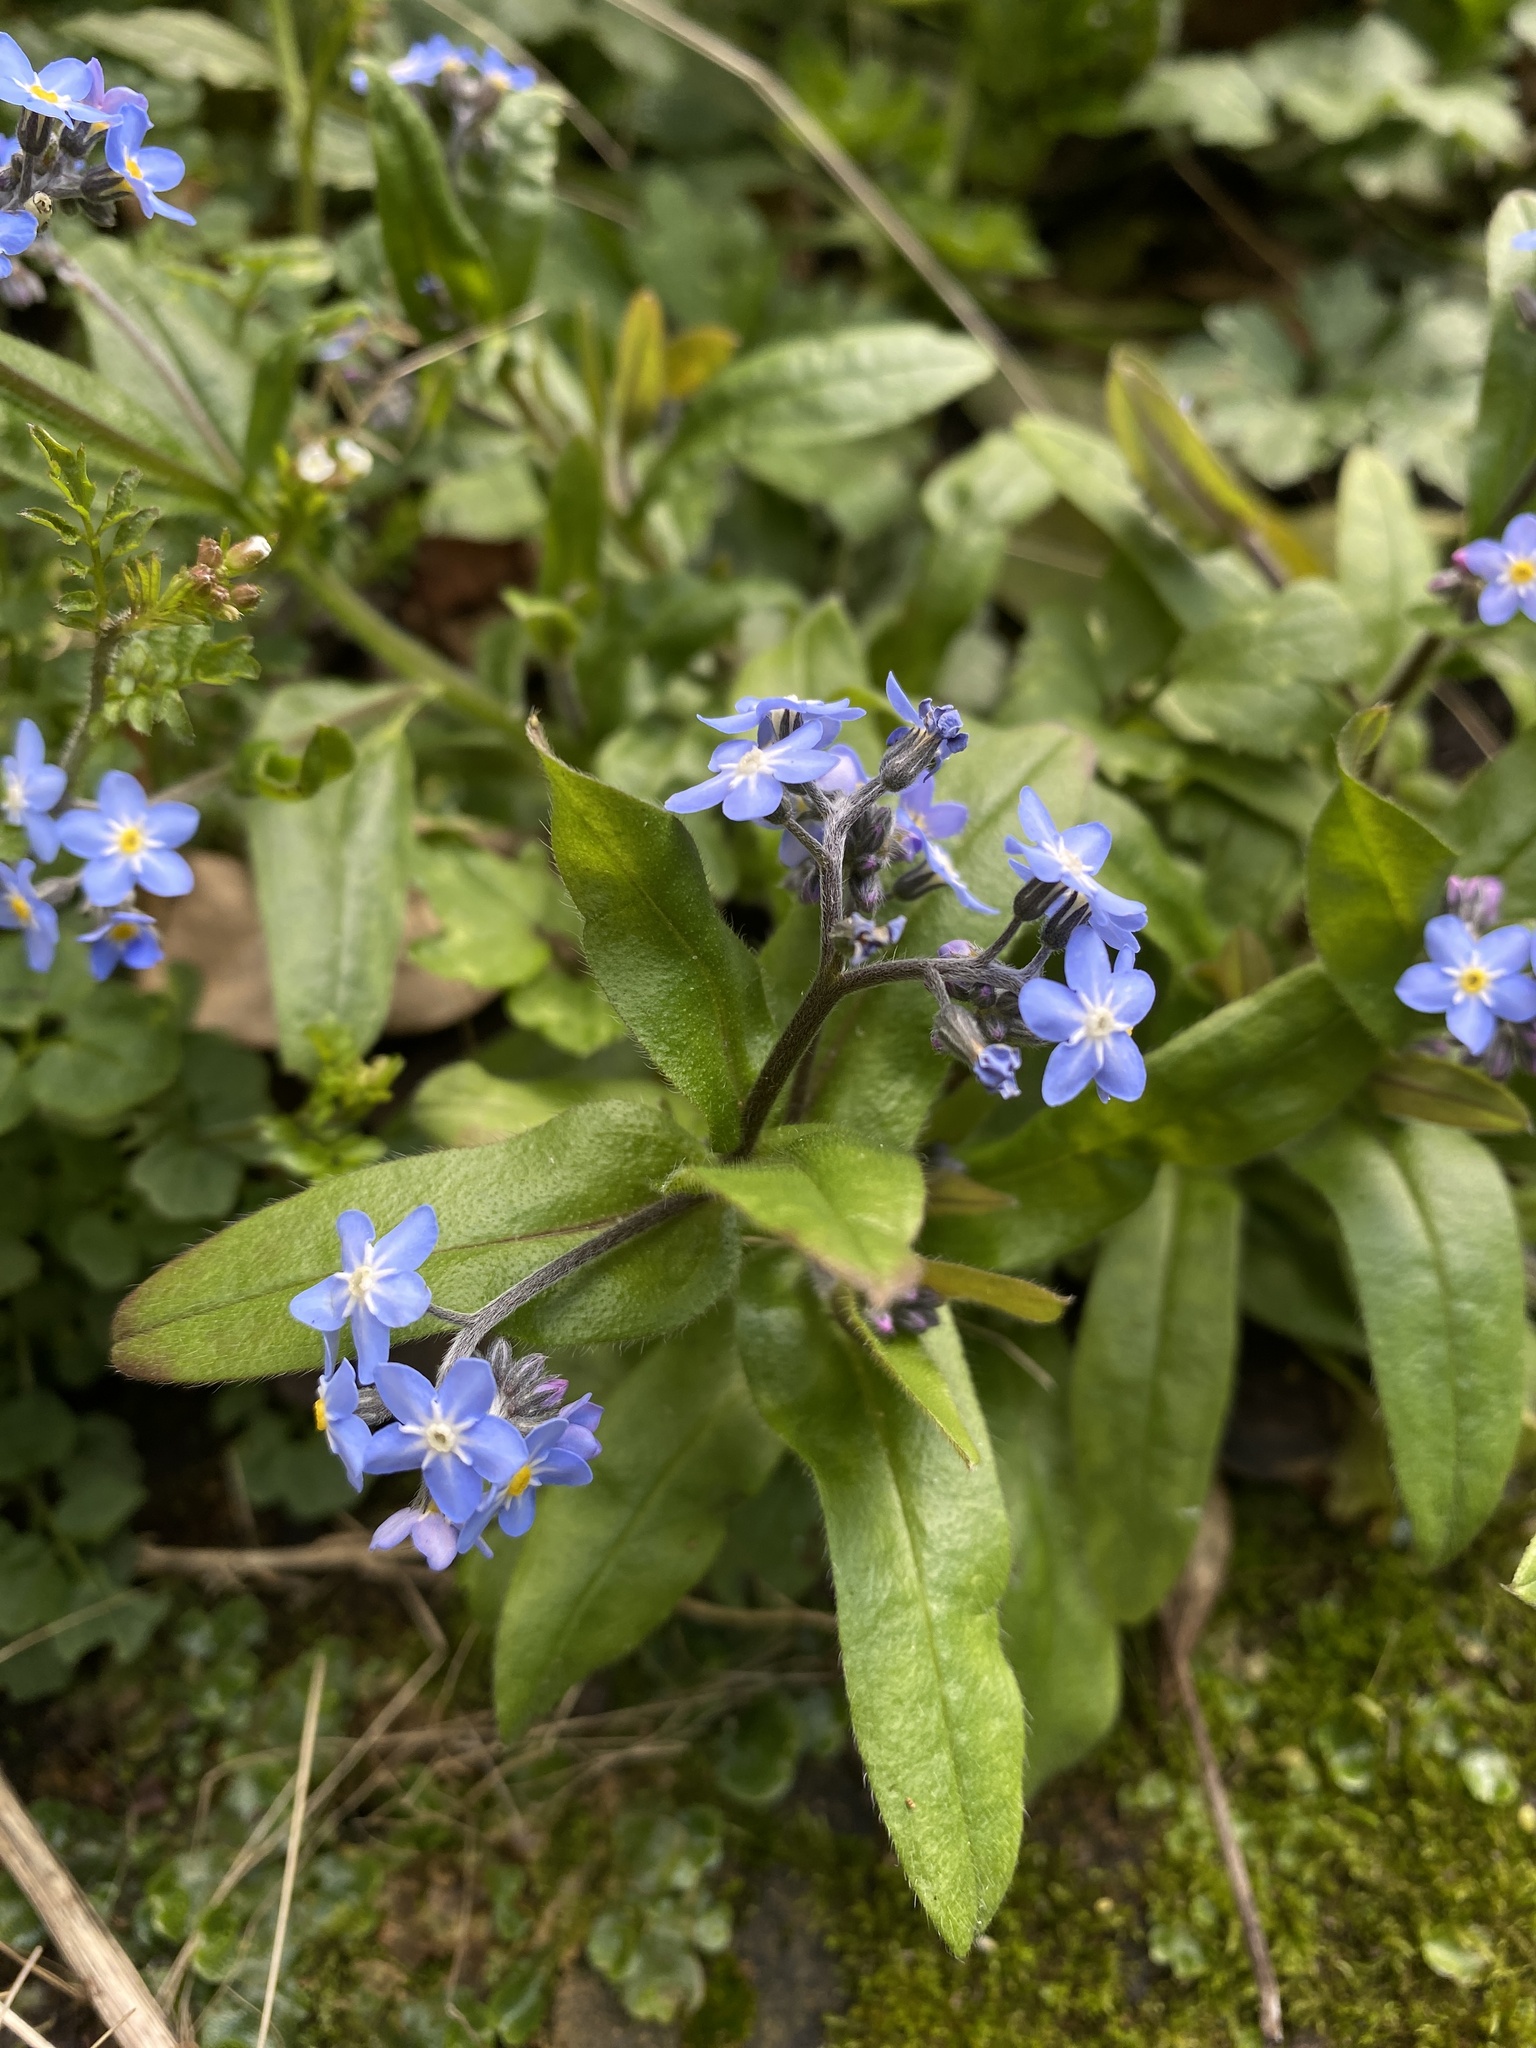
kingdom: Plantae
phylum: Tracheophyta
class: Magnoliopsida
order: Boraginales
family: Boraginaceae
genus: Myosotis
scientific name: Myosotis sylvatica
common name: Wood forget-me-not
